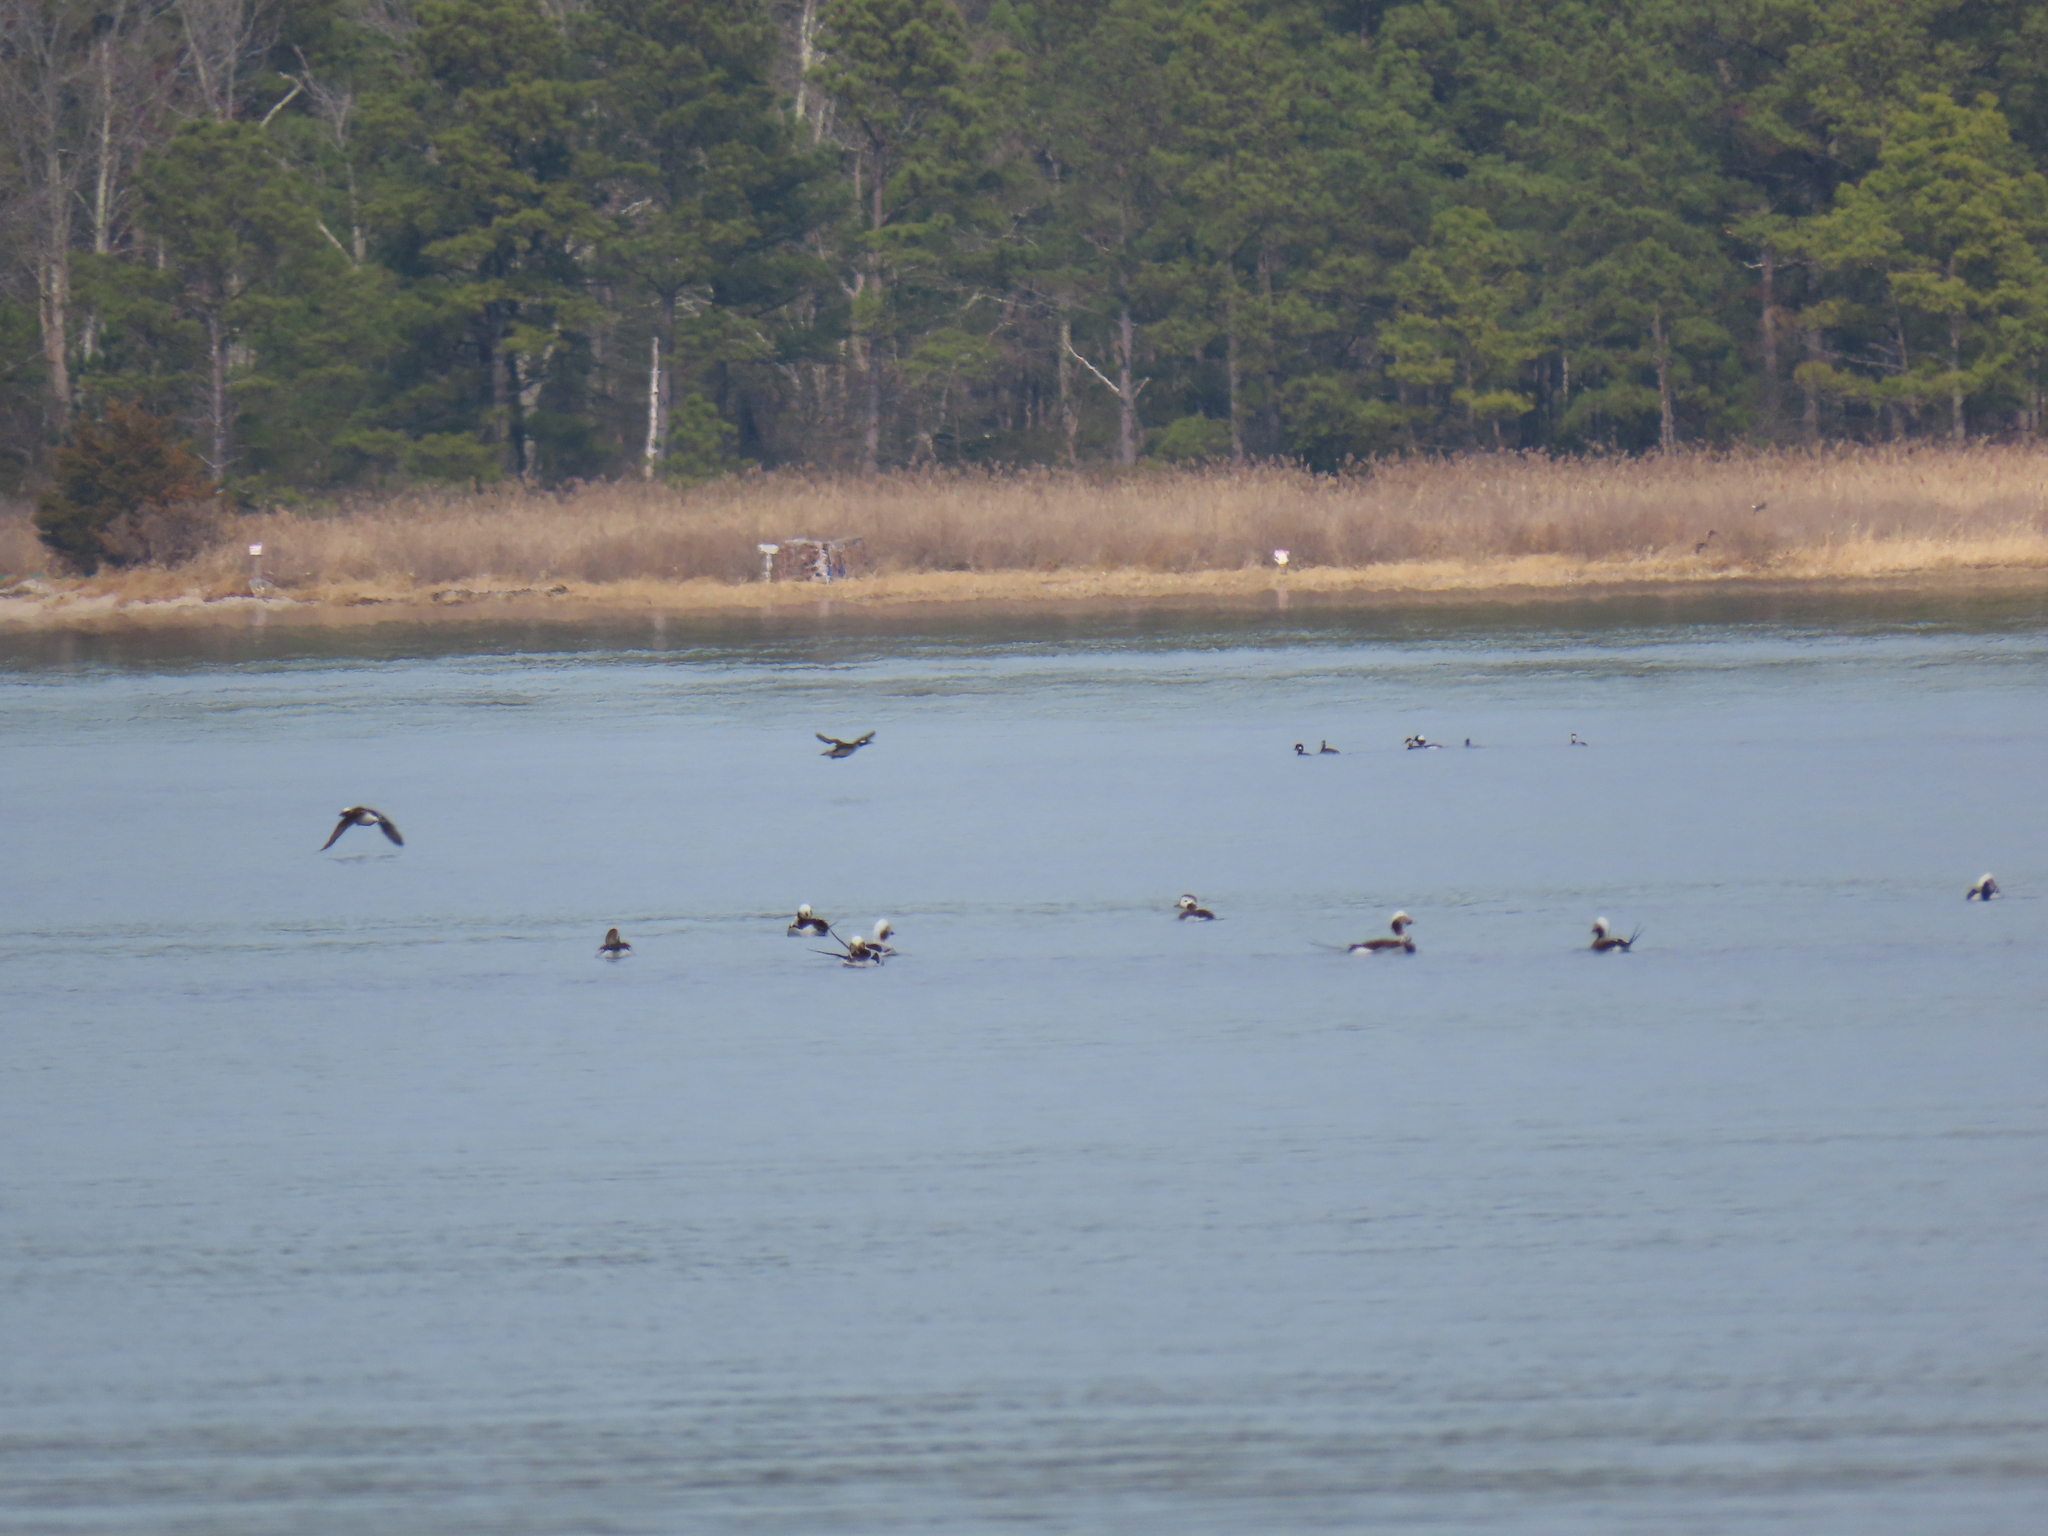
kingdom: Animalia
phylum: Chordata
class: Aves
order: Anseriformes
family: Anatidae
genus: Clangula
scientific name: Clangula hyemalis
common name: Long-tailed duck
